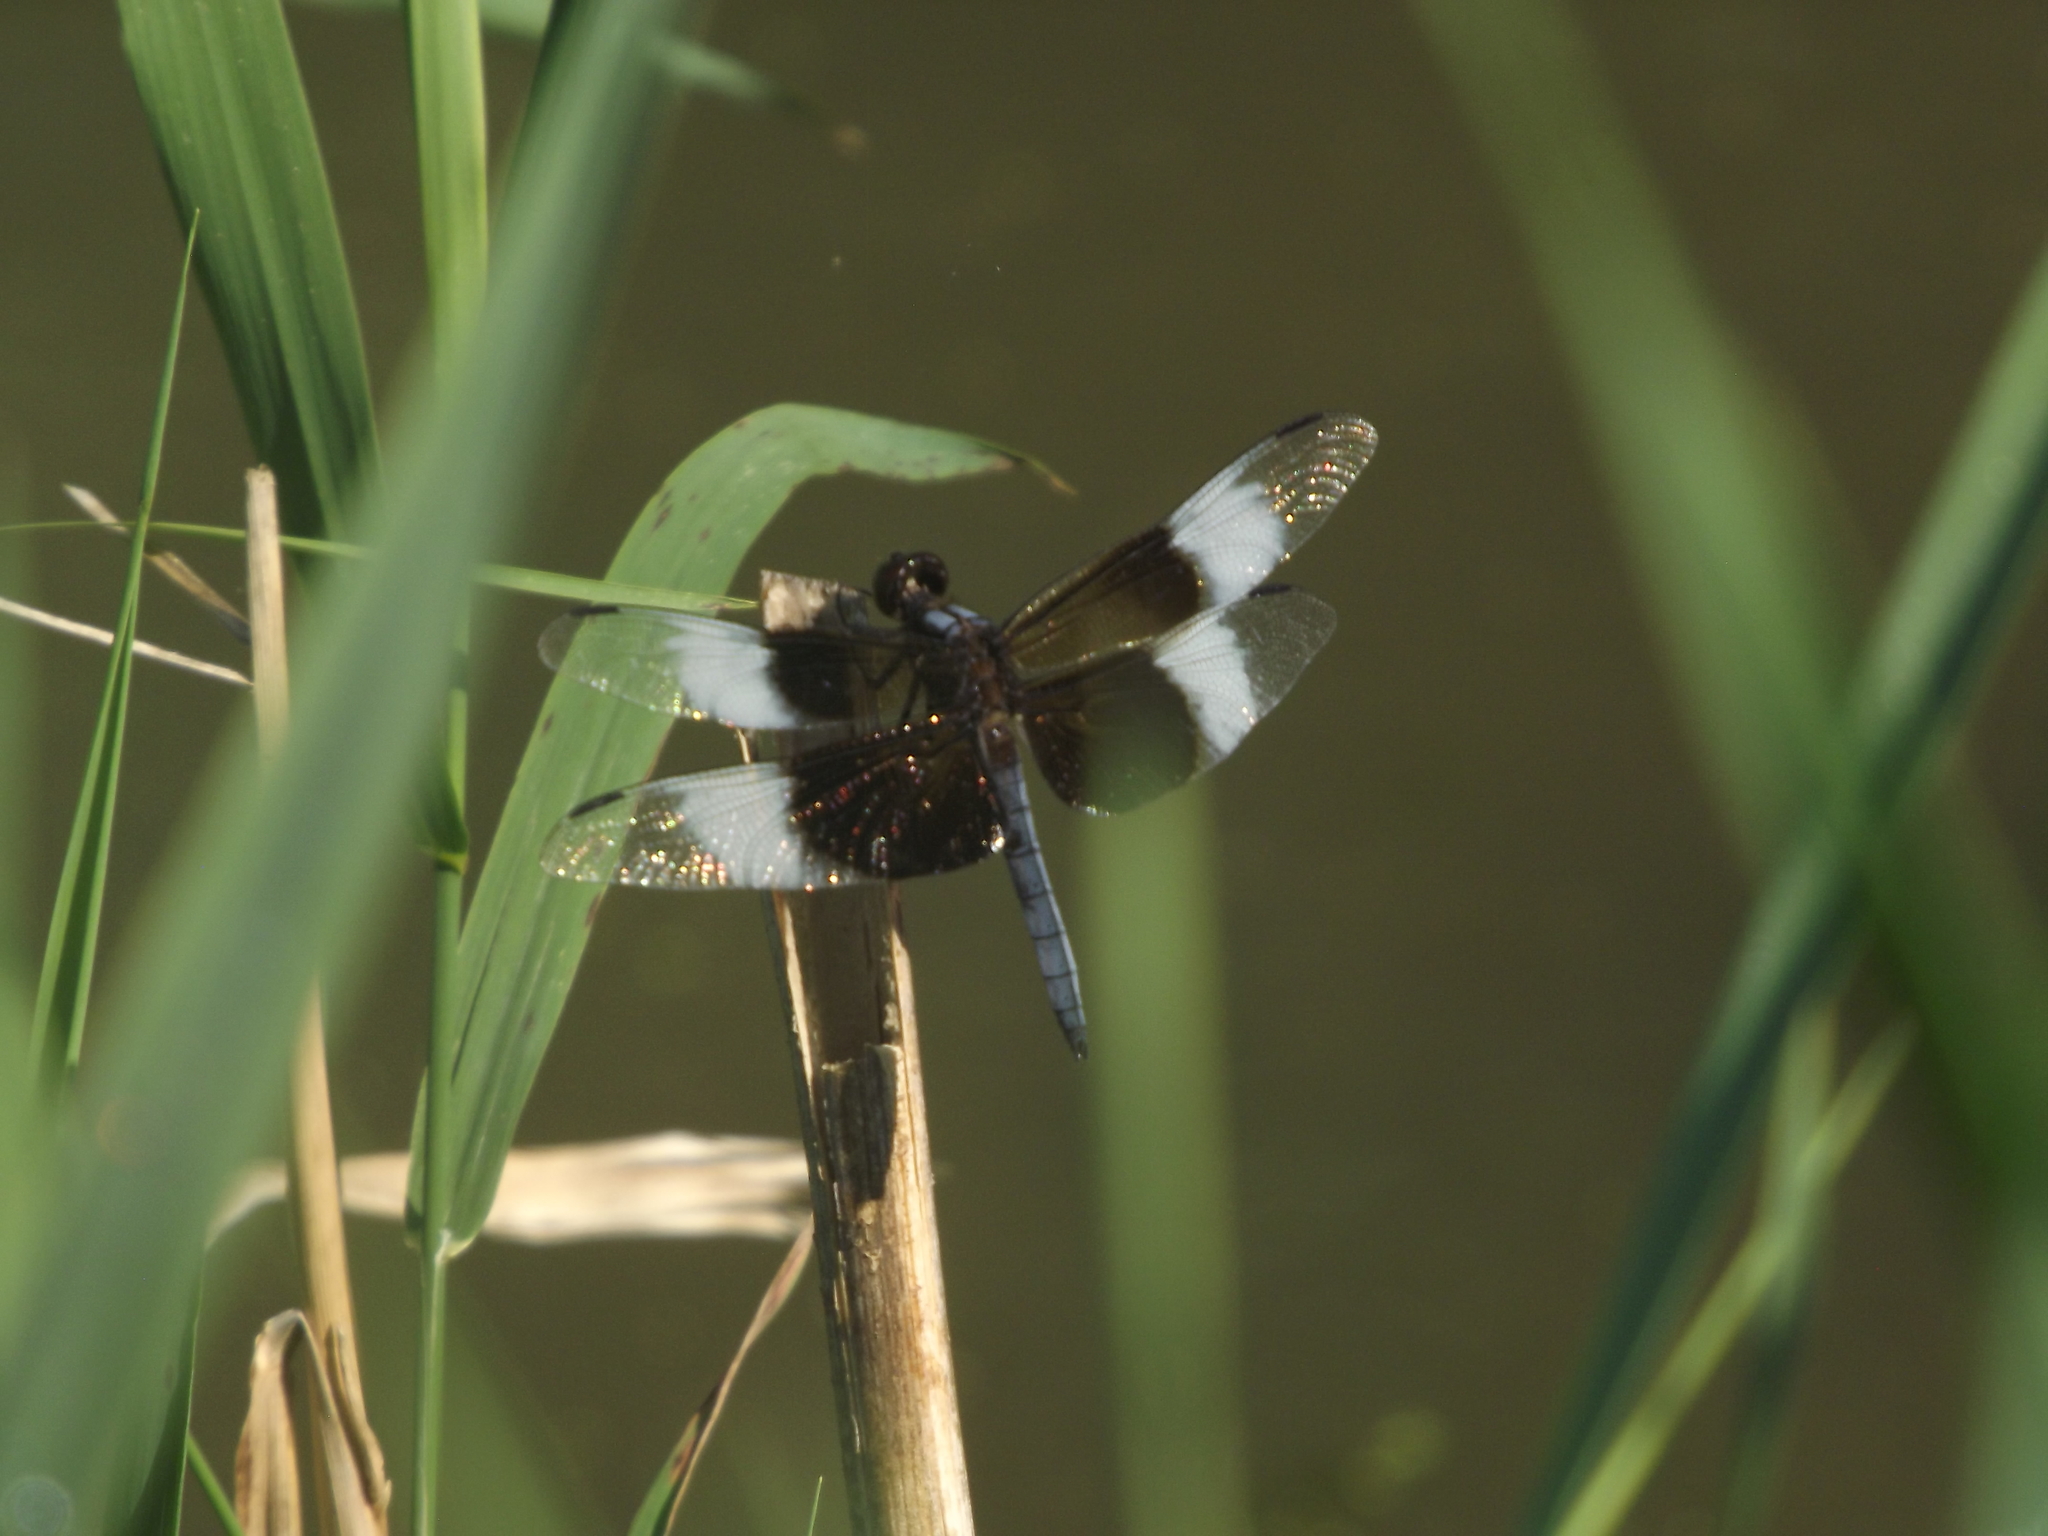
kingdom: Animalia
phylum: Arthropoda
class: Insecta
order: Odonata
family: Libellulidae
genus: Libellula
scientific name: Libellula luctuosa
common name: Widow skimmer
